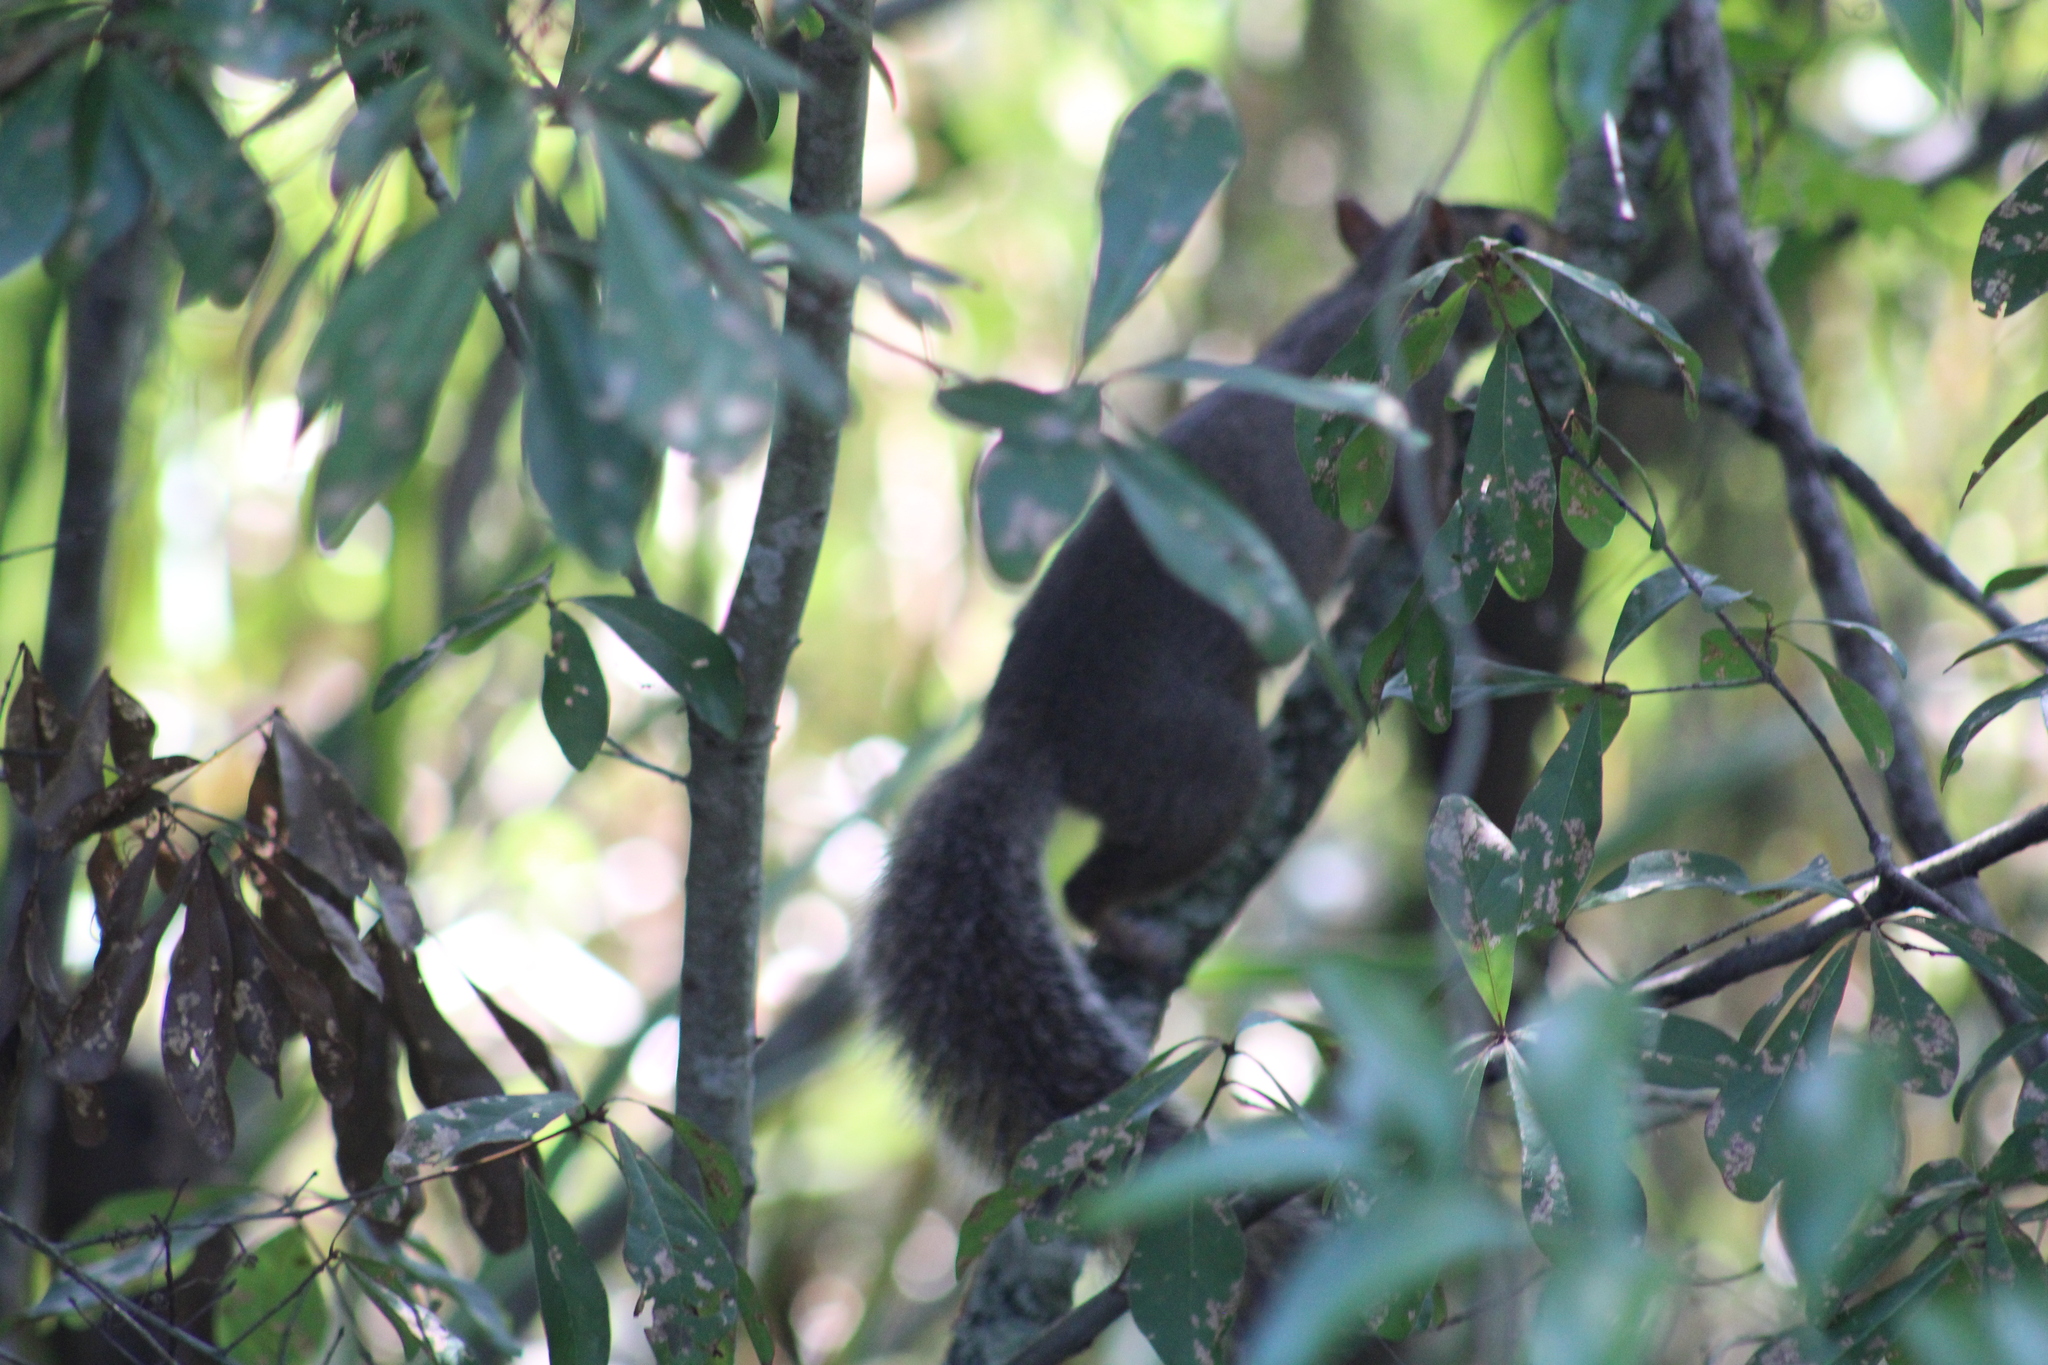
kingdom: Animalia
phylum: Chordata
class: Mammalia
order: Rodentia
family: Sciuridae
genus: Sciurus
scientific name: Sciurus carolinensis
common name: Eastern gray squirrel
